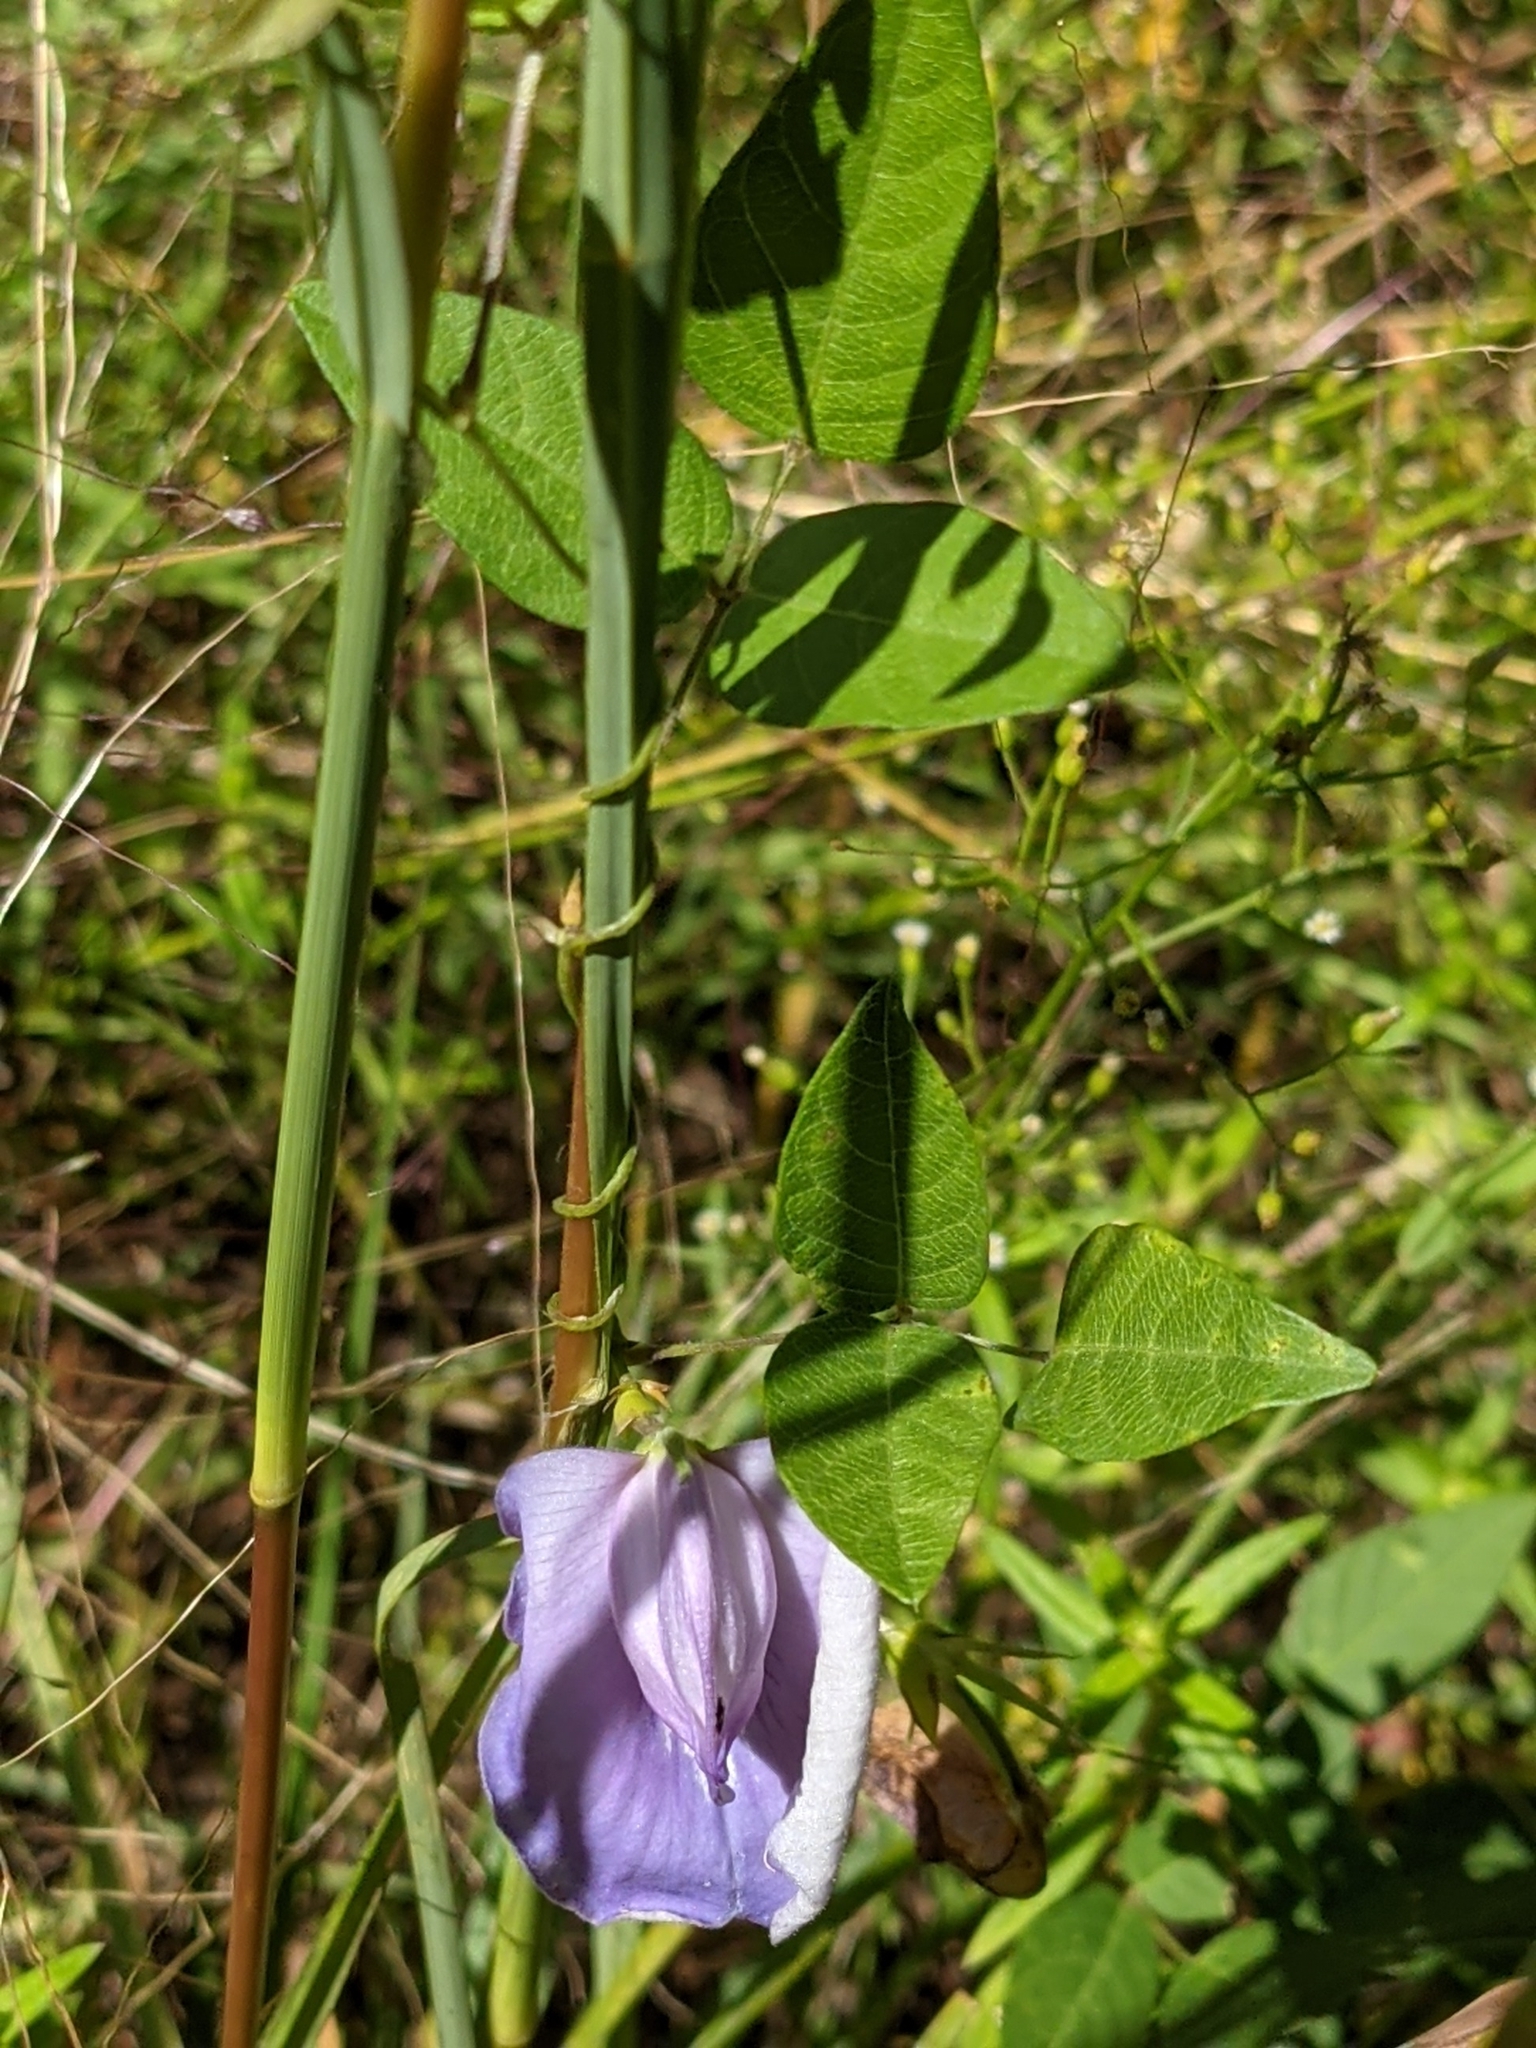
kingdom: Plantae
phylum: Tracheophyta
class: Magnoliopsida
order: Fabales
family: Fabaceae
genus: Centrosema
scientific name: Centrosema virginianum
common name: Butterfly-pea
